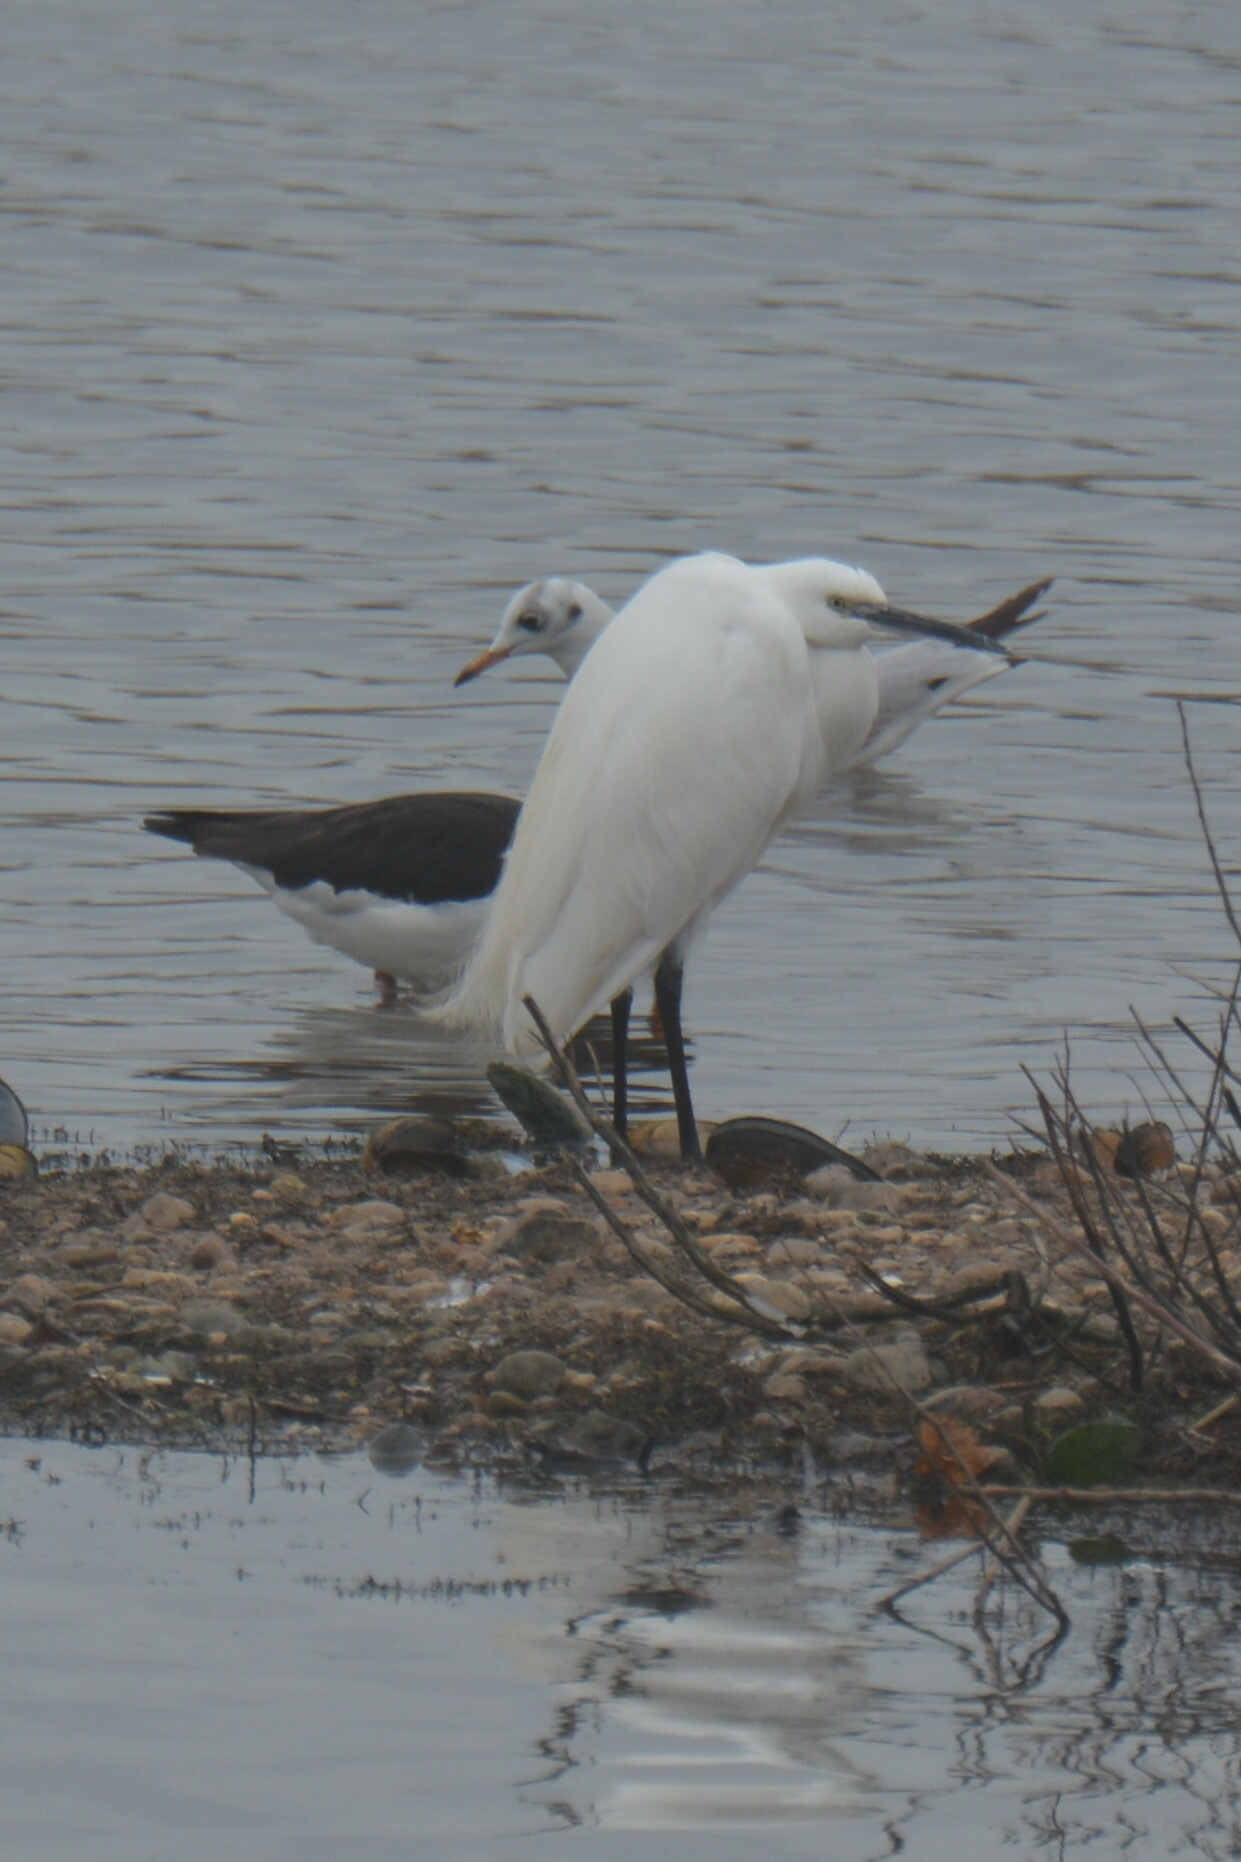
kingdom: Animalia
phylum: Chordata
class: Aves
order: Pelecaniformes
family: Ardeidae
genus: Egretta
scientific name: Egretta garzetta
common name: Little egret
